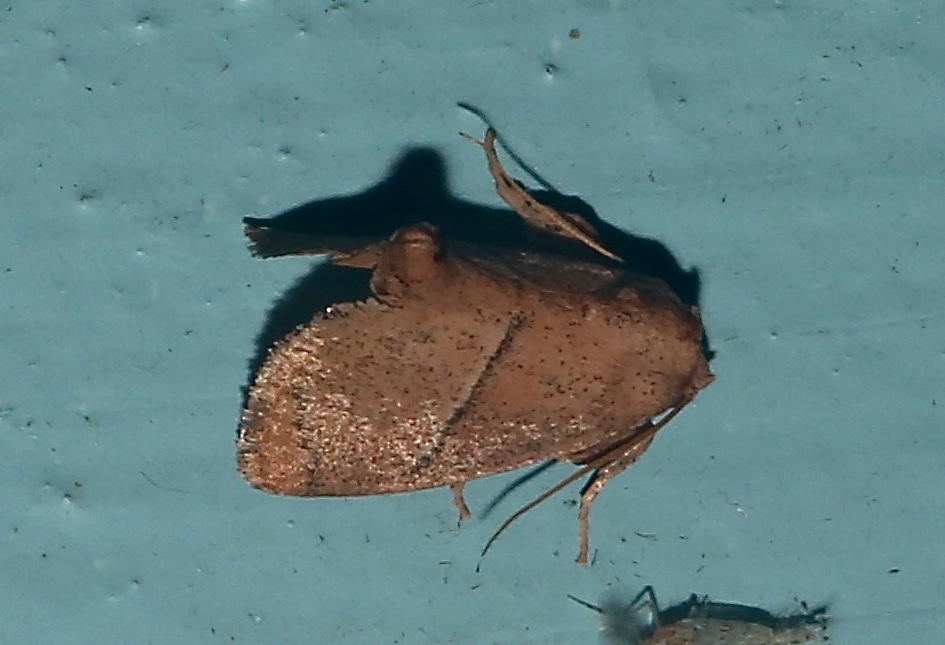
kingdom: Animalia
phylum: Arthropoda
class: Insecta
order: Lepidoptera
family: Limacodidae
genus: Apoda
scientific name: Apoda rectilinea
